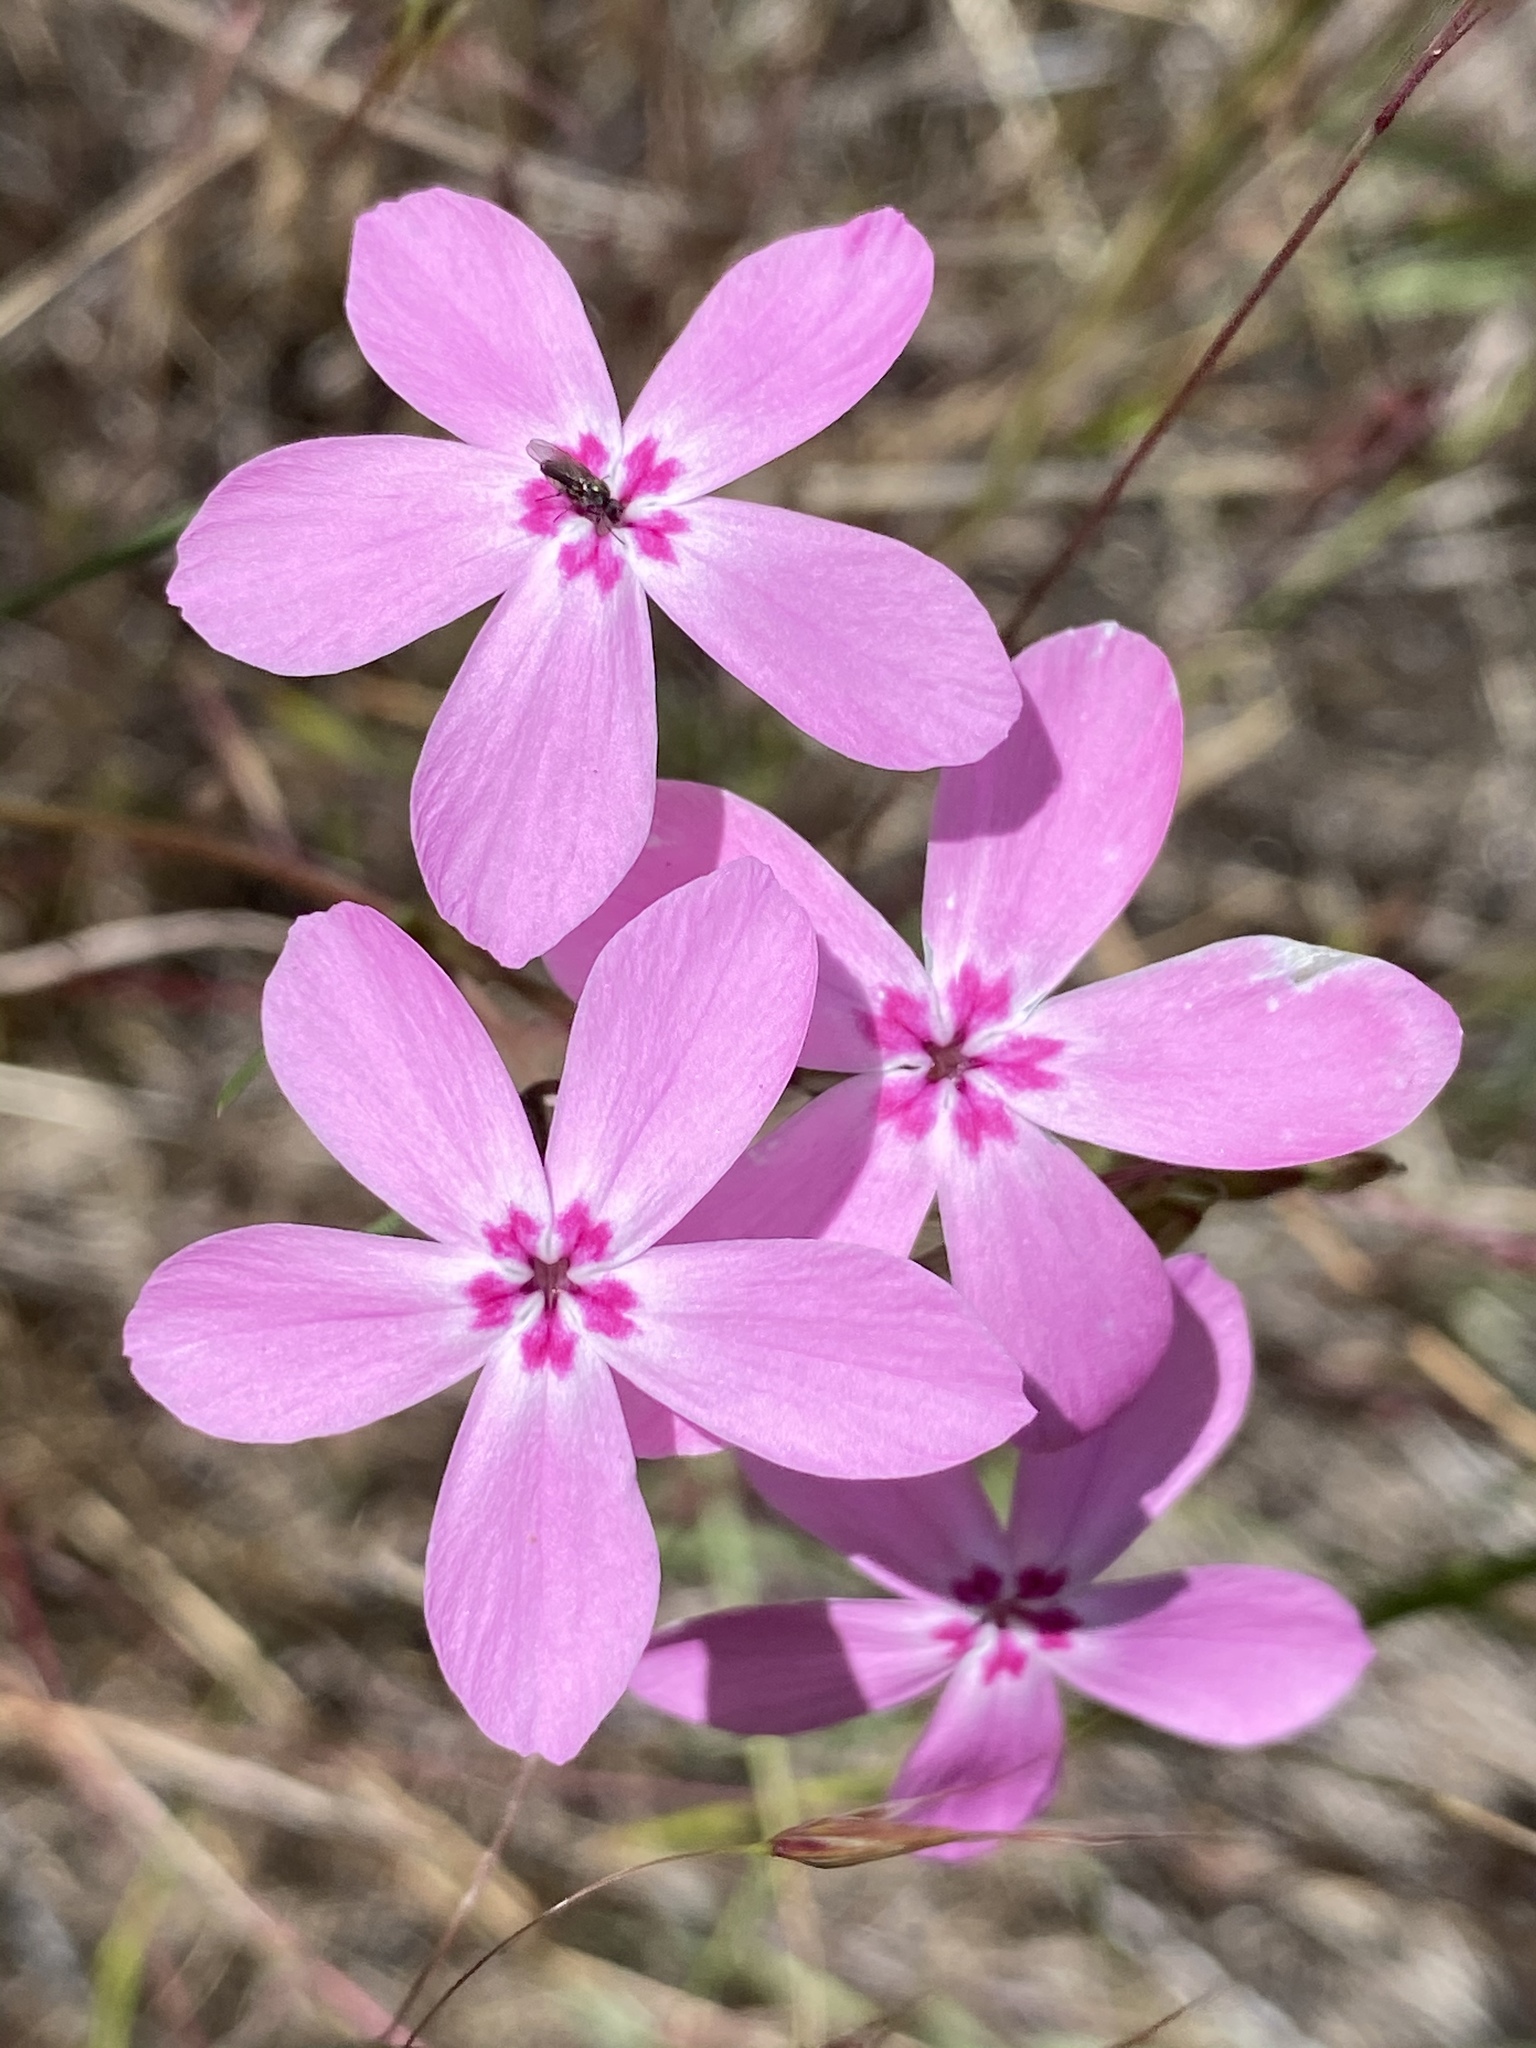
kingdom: Plantae
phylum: Tracheophyta
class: Magnoliopsida
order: Ericales
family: Polemoniaceae
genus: Phlox
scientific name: Phlox colubrina
